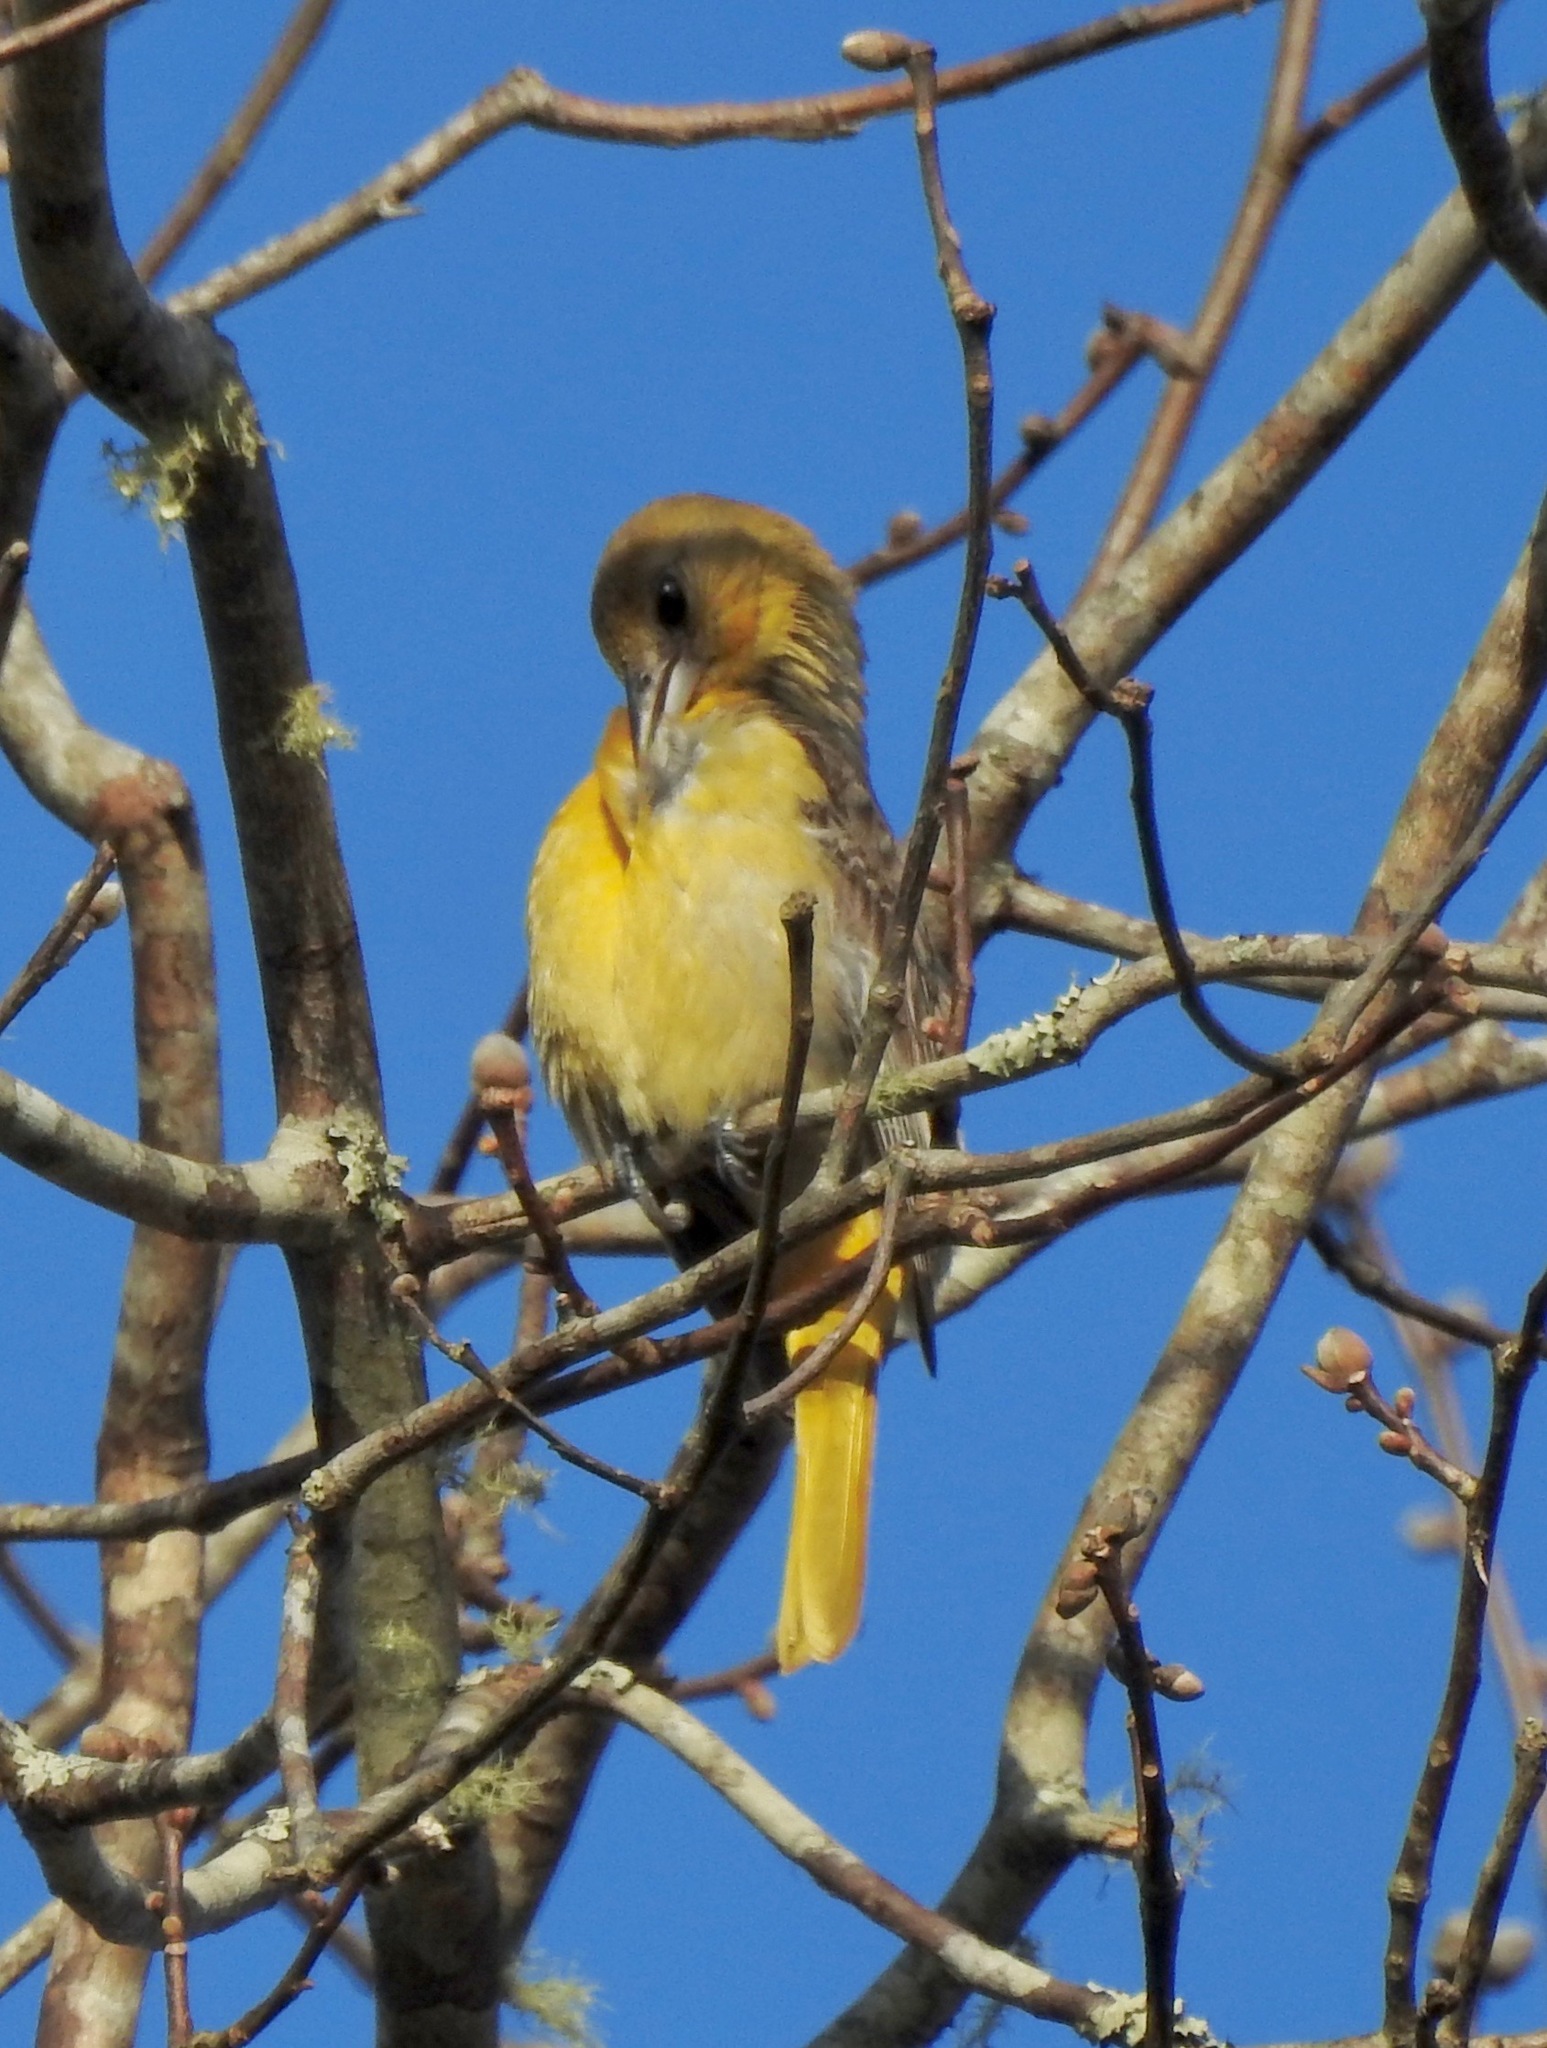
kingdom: Animalia
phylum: Chordata
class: Aves
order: Passeriformes
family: Icteridae
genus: Icterus
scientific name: Icterus galbula
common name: Baltimore oriole
